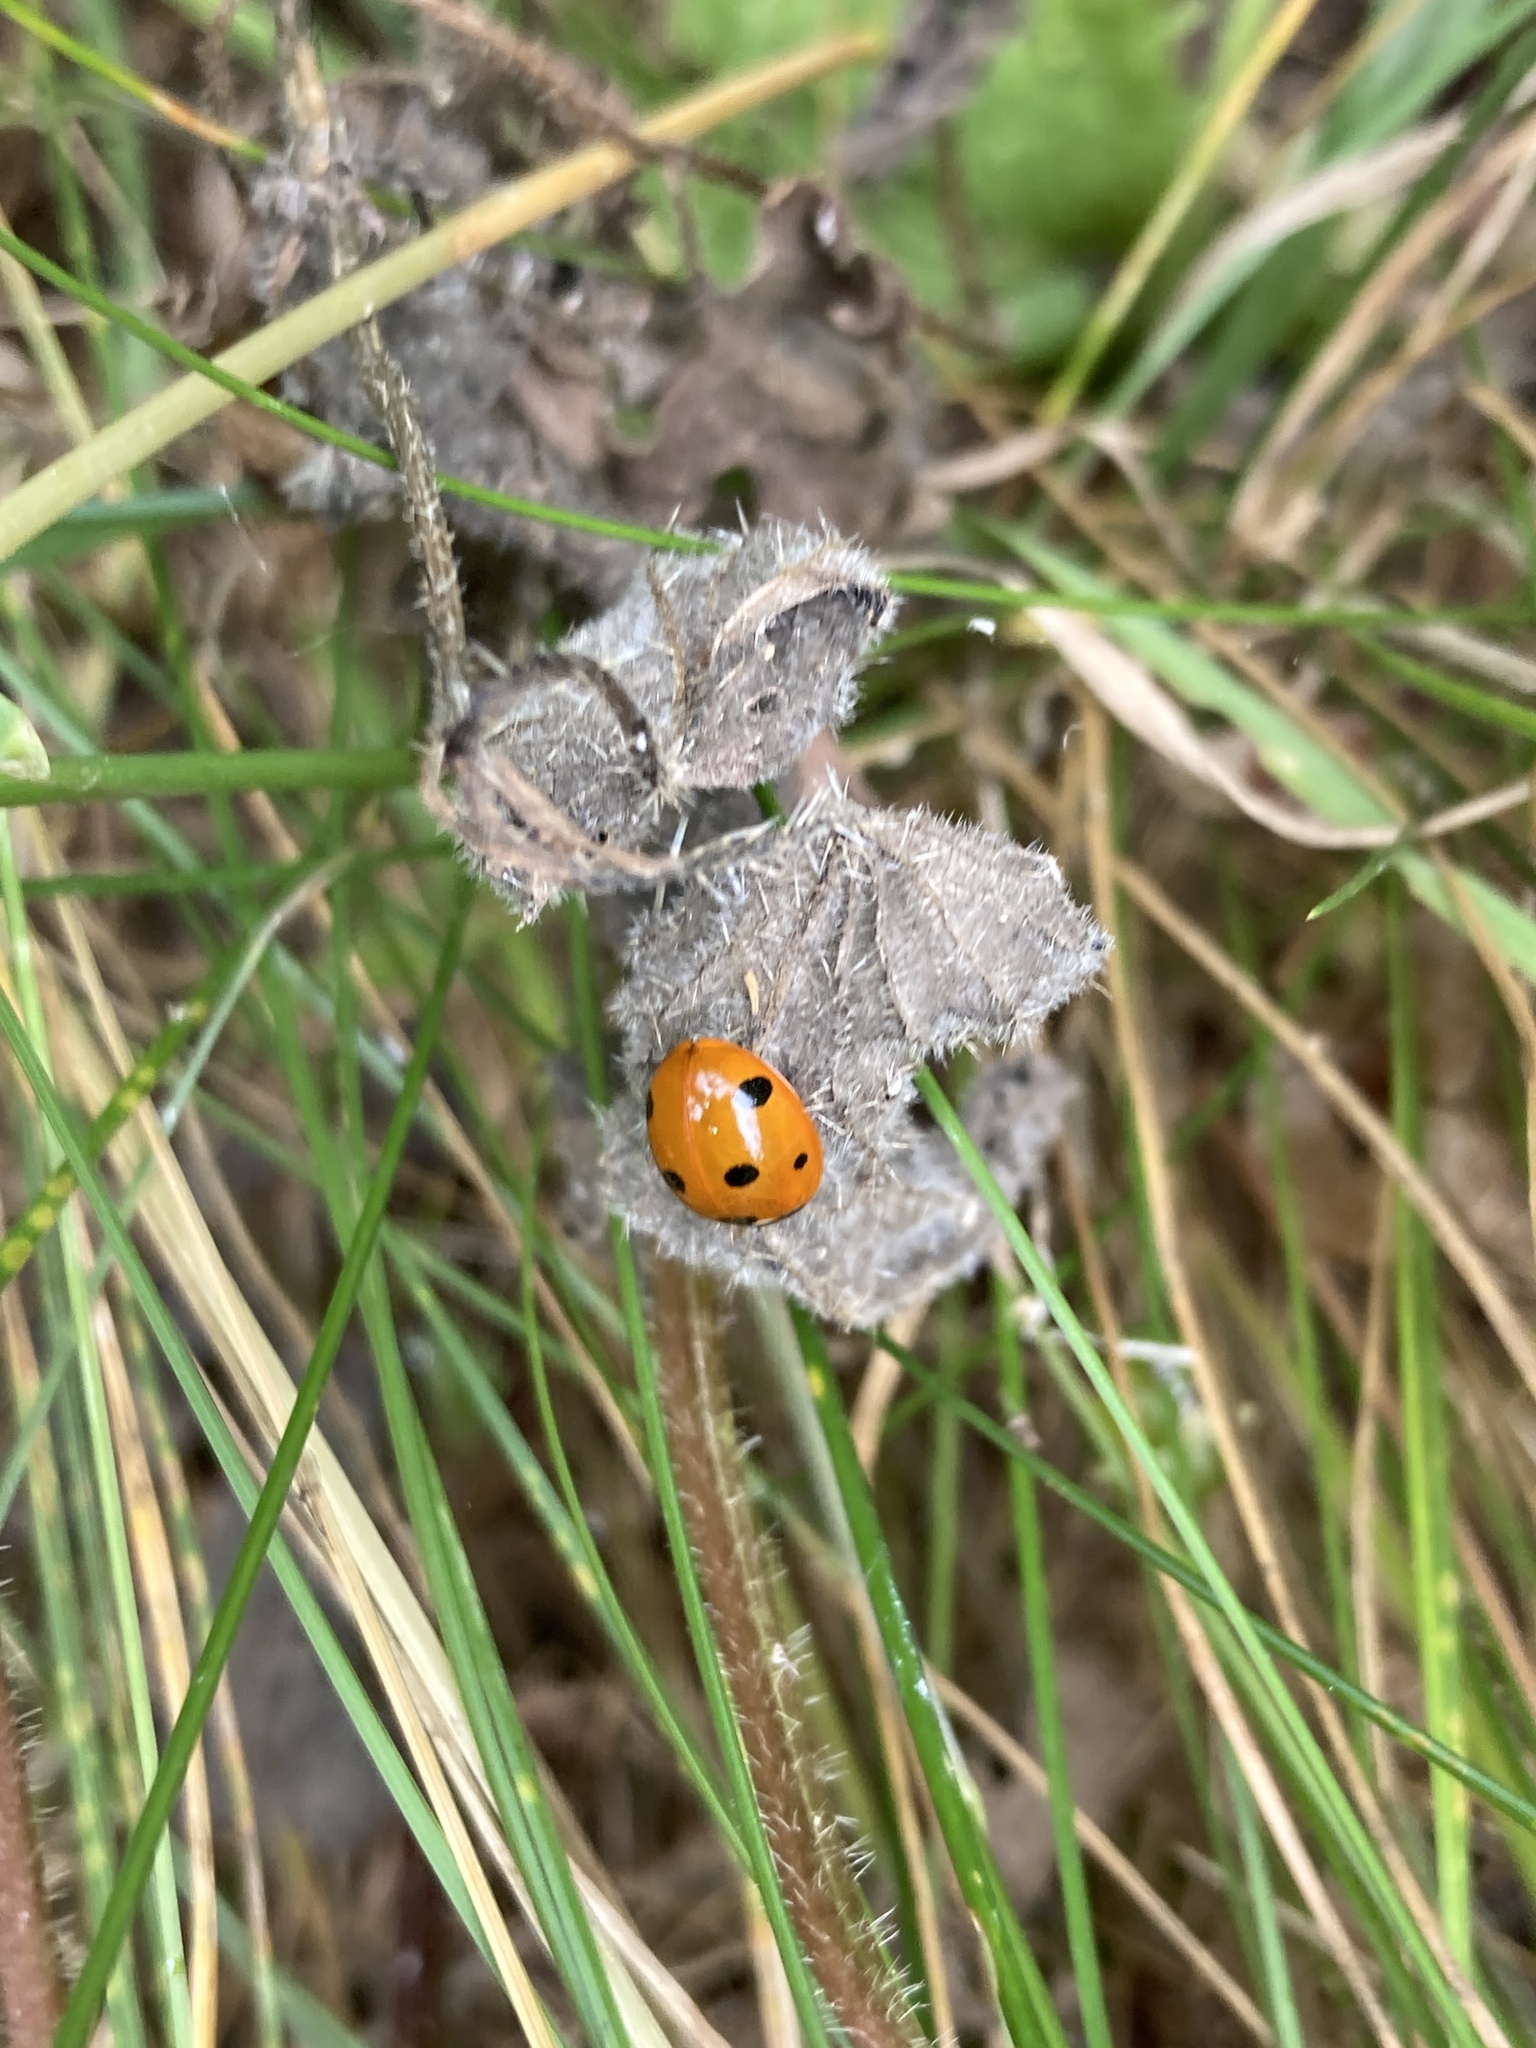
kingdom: Animalia
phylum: Arthropoda
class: Insecta
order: Coleoptera
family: Coccinellidae
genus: Coccinella
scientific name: Coccinella septempunctata
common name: Sevenspotted lady beetle
